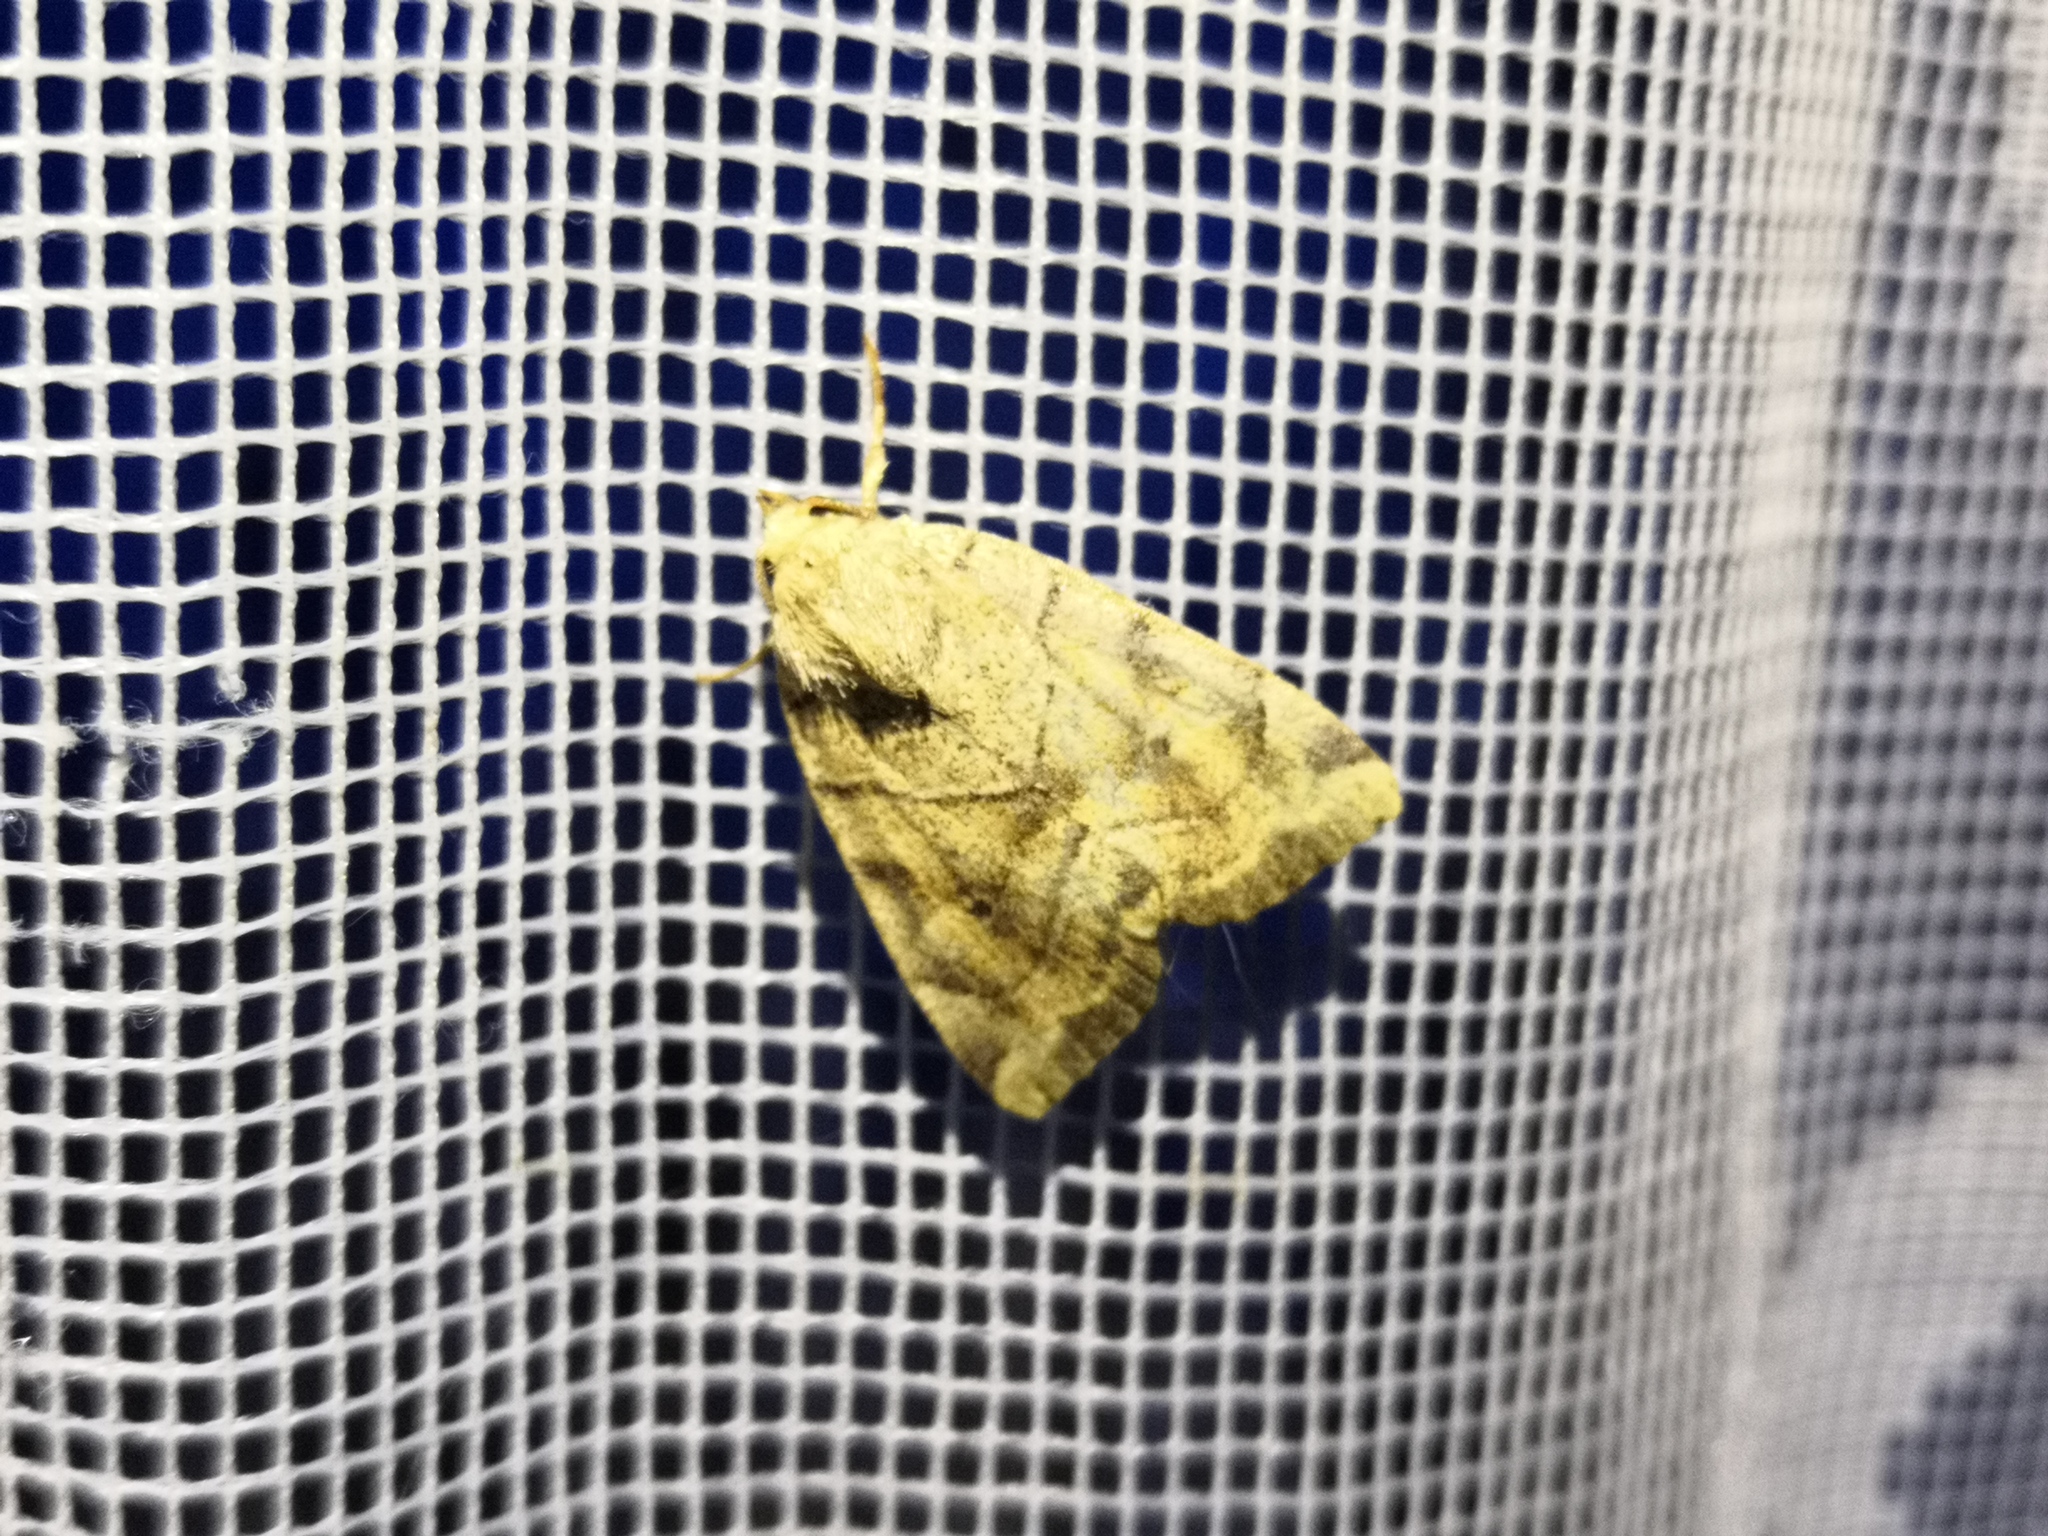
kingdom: Animalia
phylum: Arthropoda
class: Insecta
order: Lepidoptera
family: Noctuidae
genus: Cosmia
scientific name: Cosmia trapezina
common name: Dun-bar
